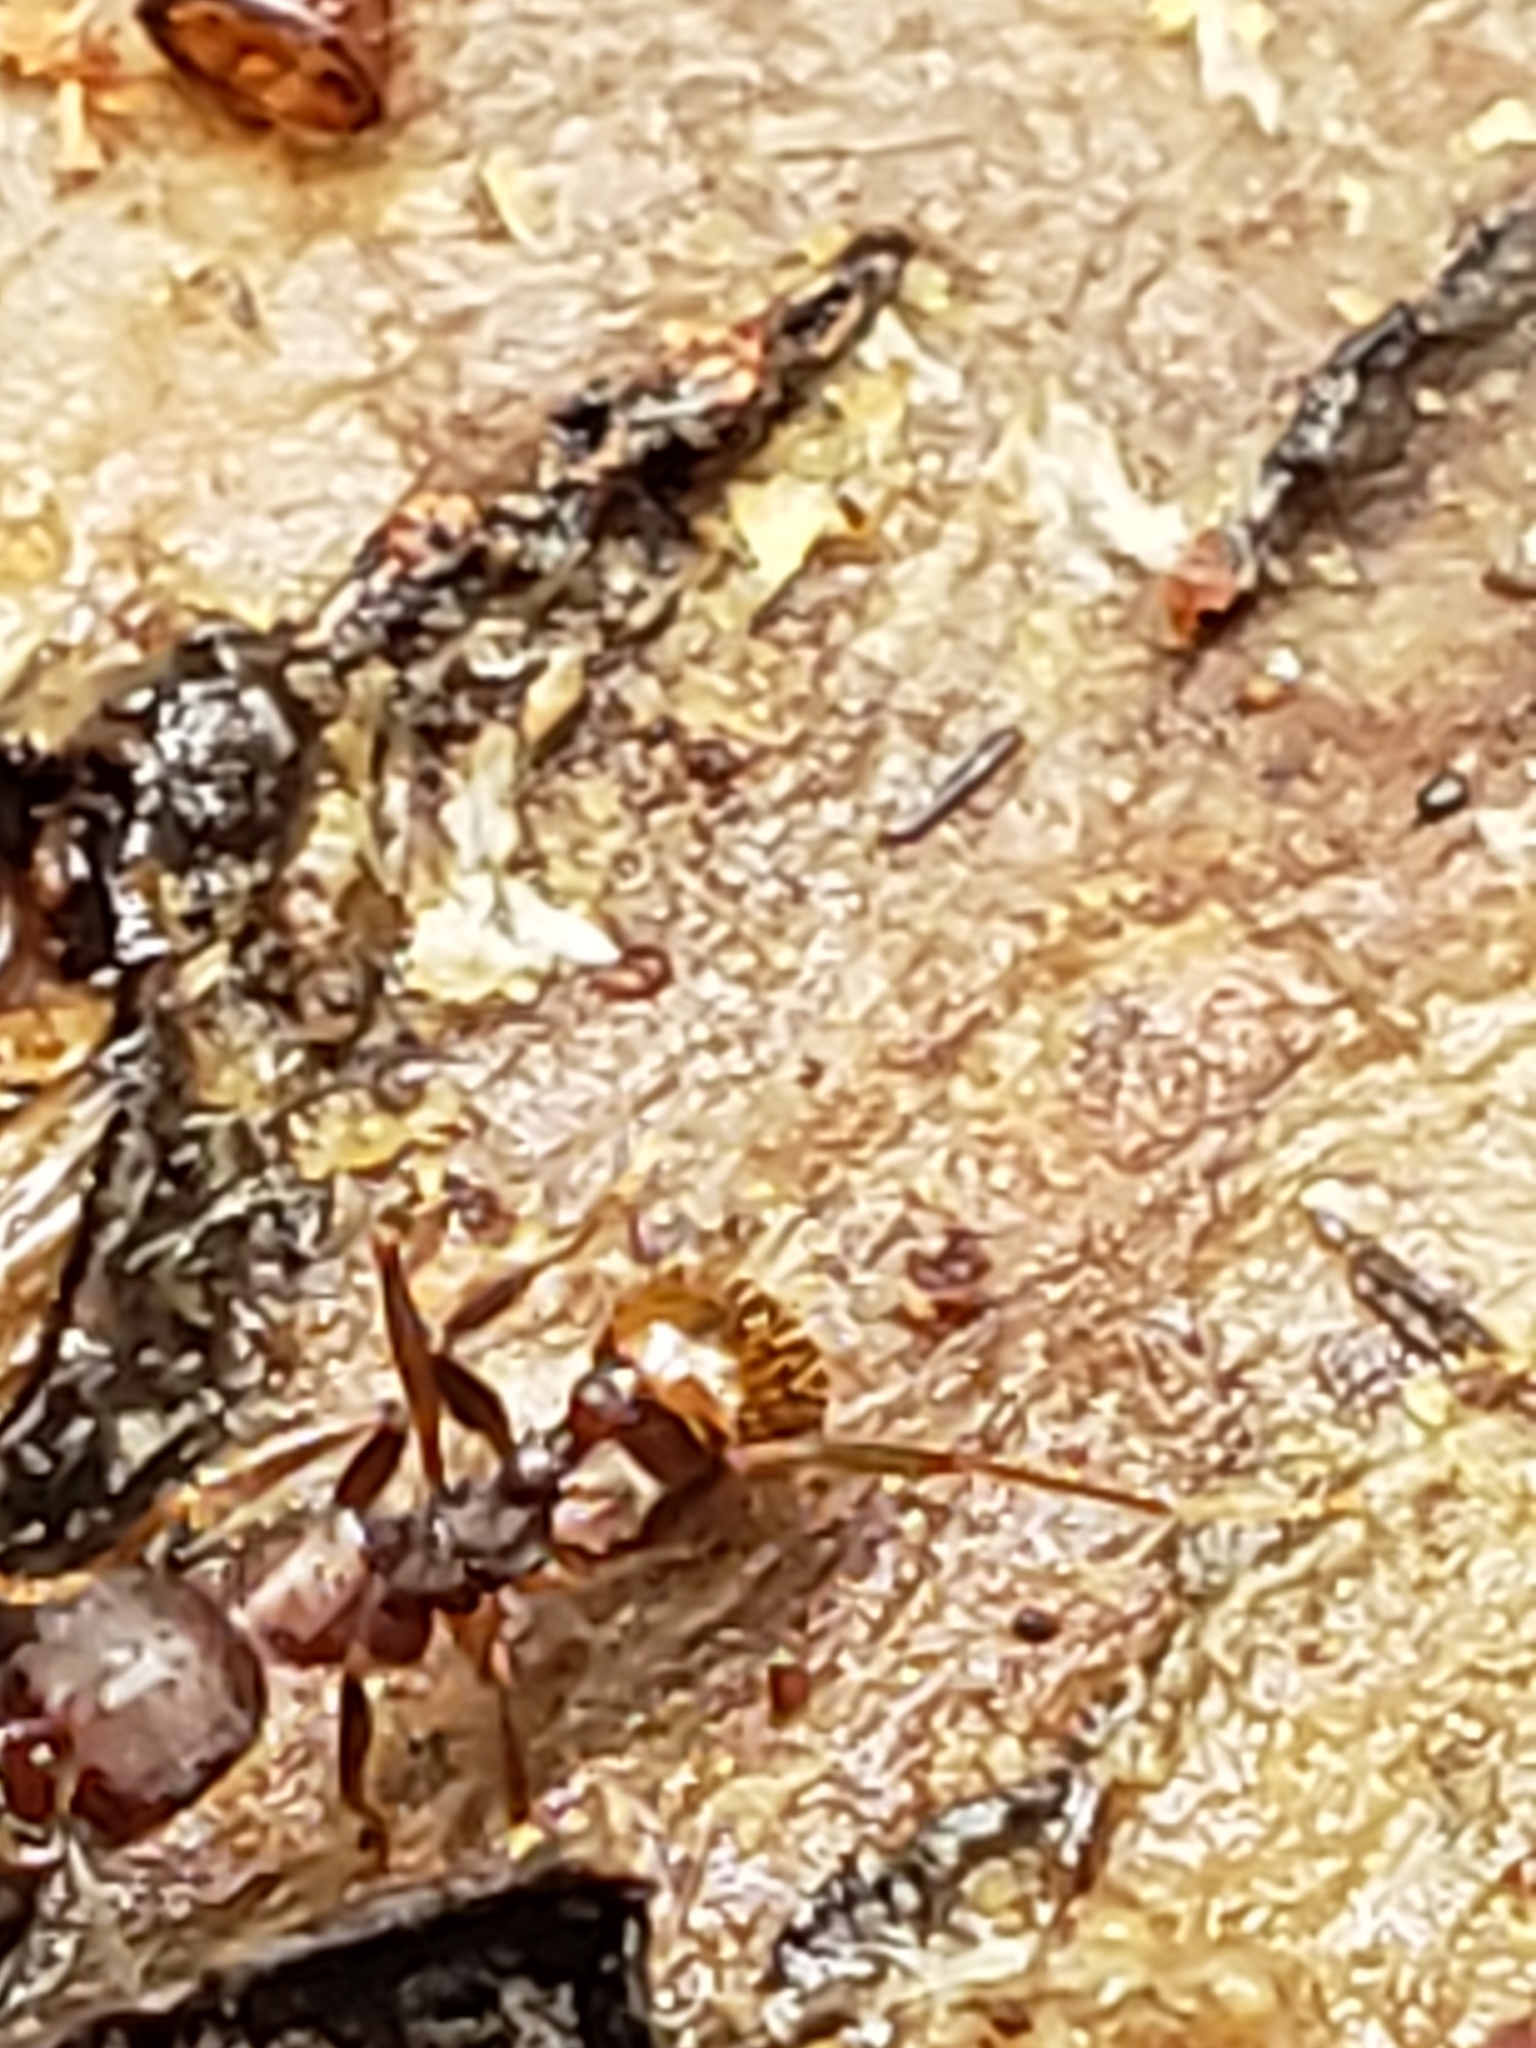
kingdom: Animalia
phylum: Arthropoda
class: Insecta
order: Hymenoptera
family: Formicidae
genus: Aphaenogaster
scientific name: Aphaenogaster fulva
